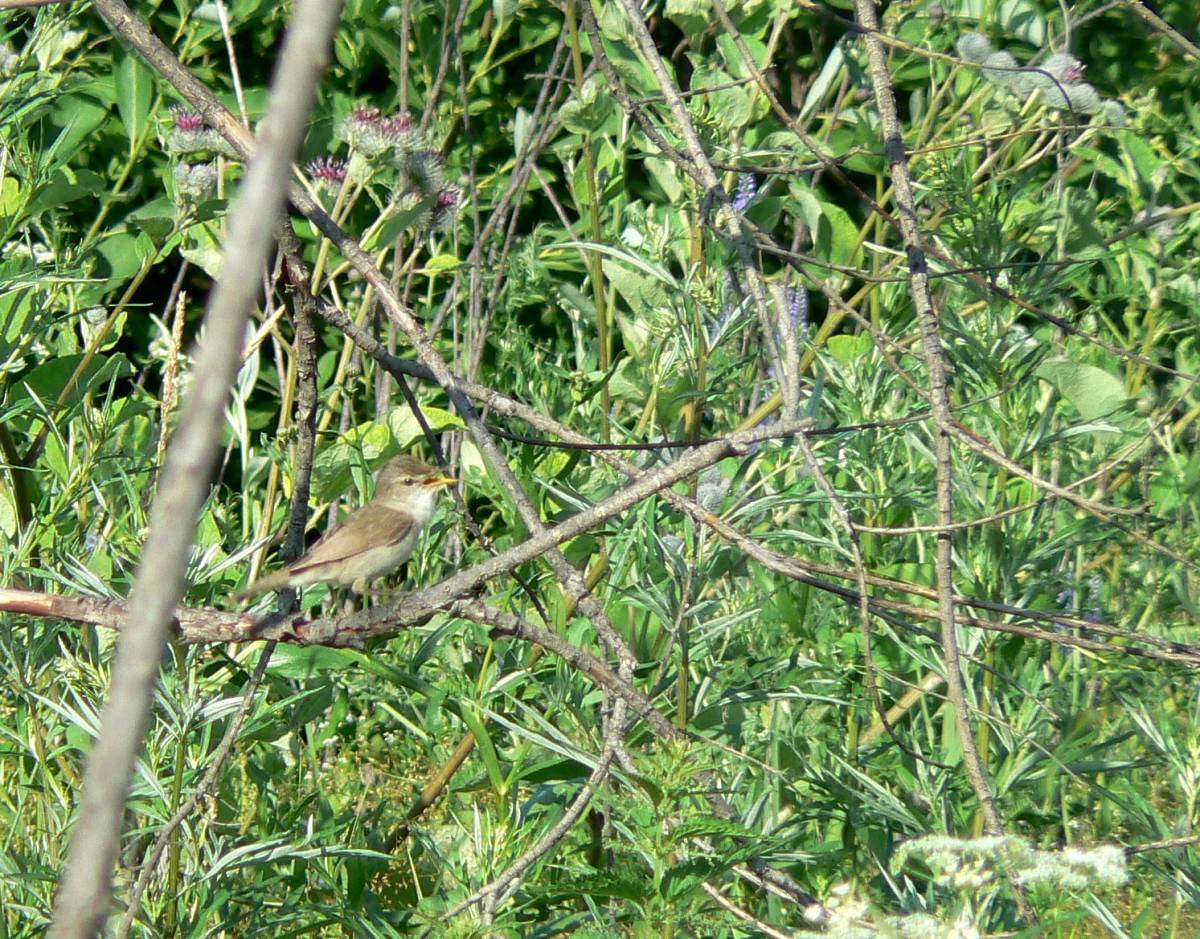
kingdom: Animalia
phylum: Chordata
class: Aves
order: Passeriformes
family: Acrocephalidae
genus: Acrocephalus
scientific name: Acrocephalus dumetorum
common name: Blyth's reed warbler
